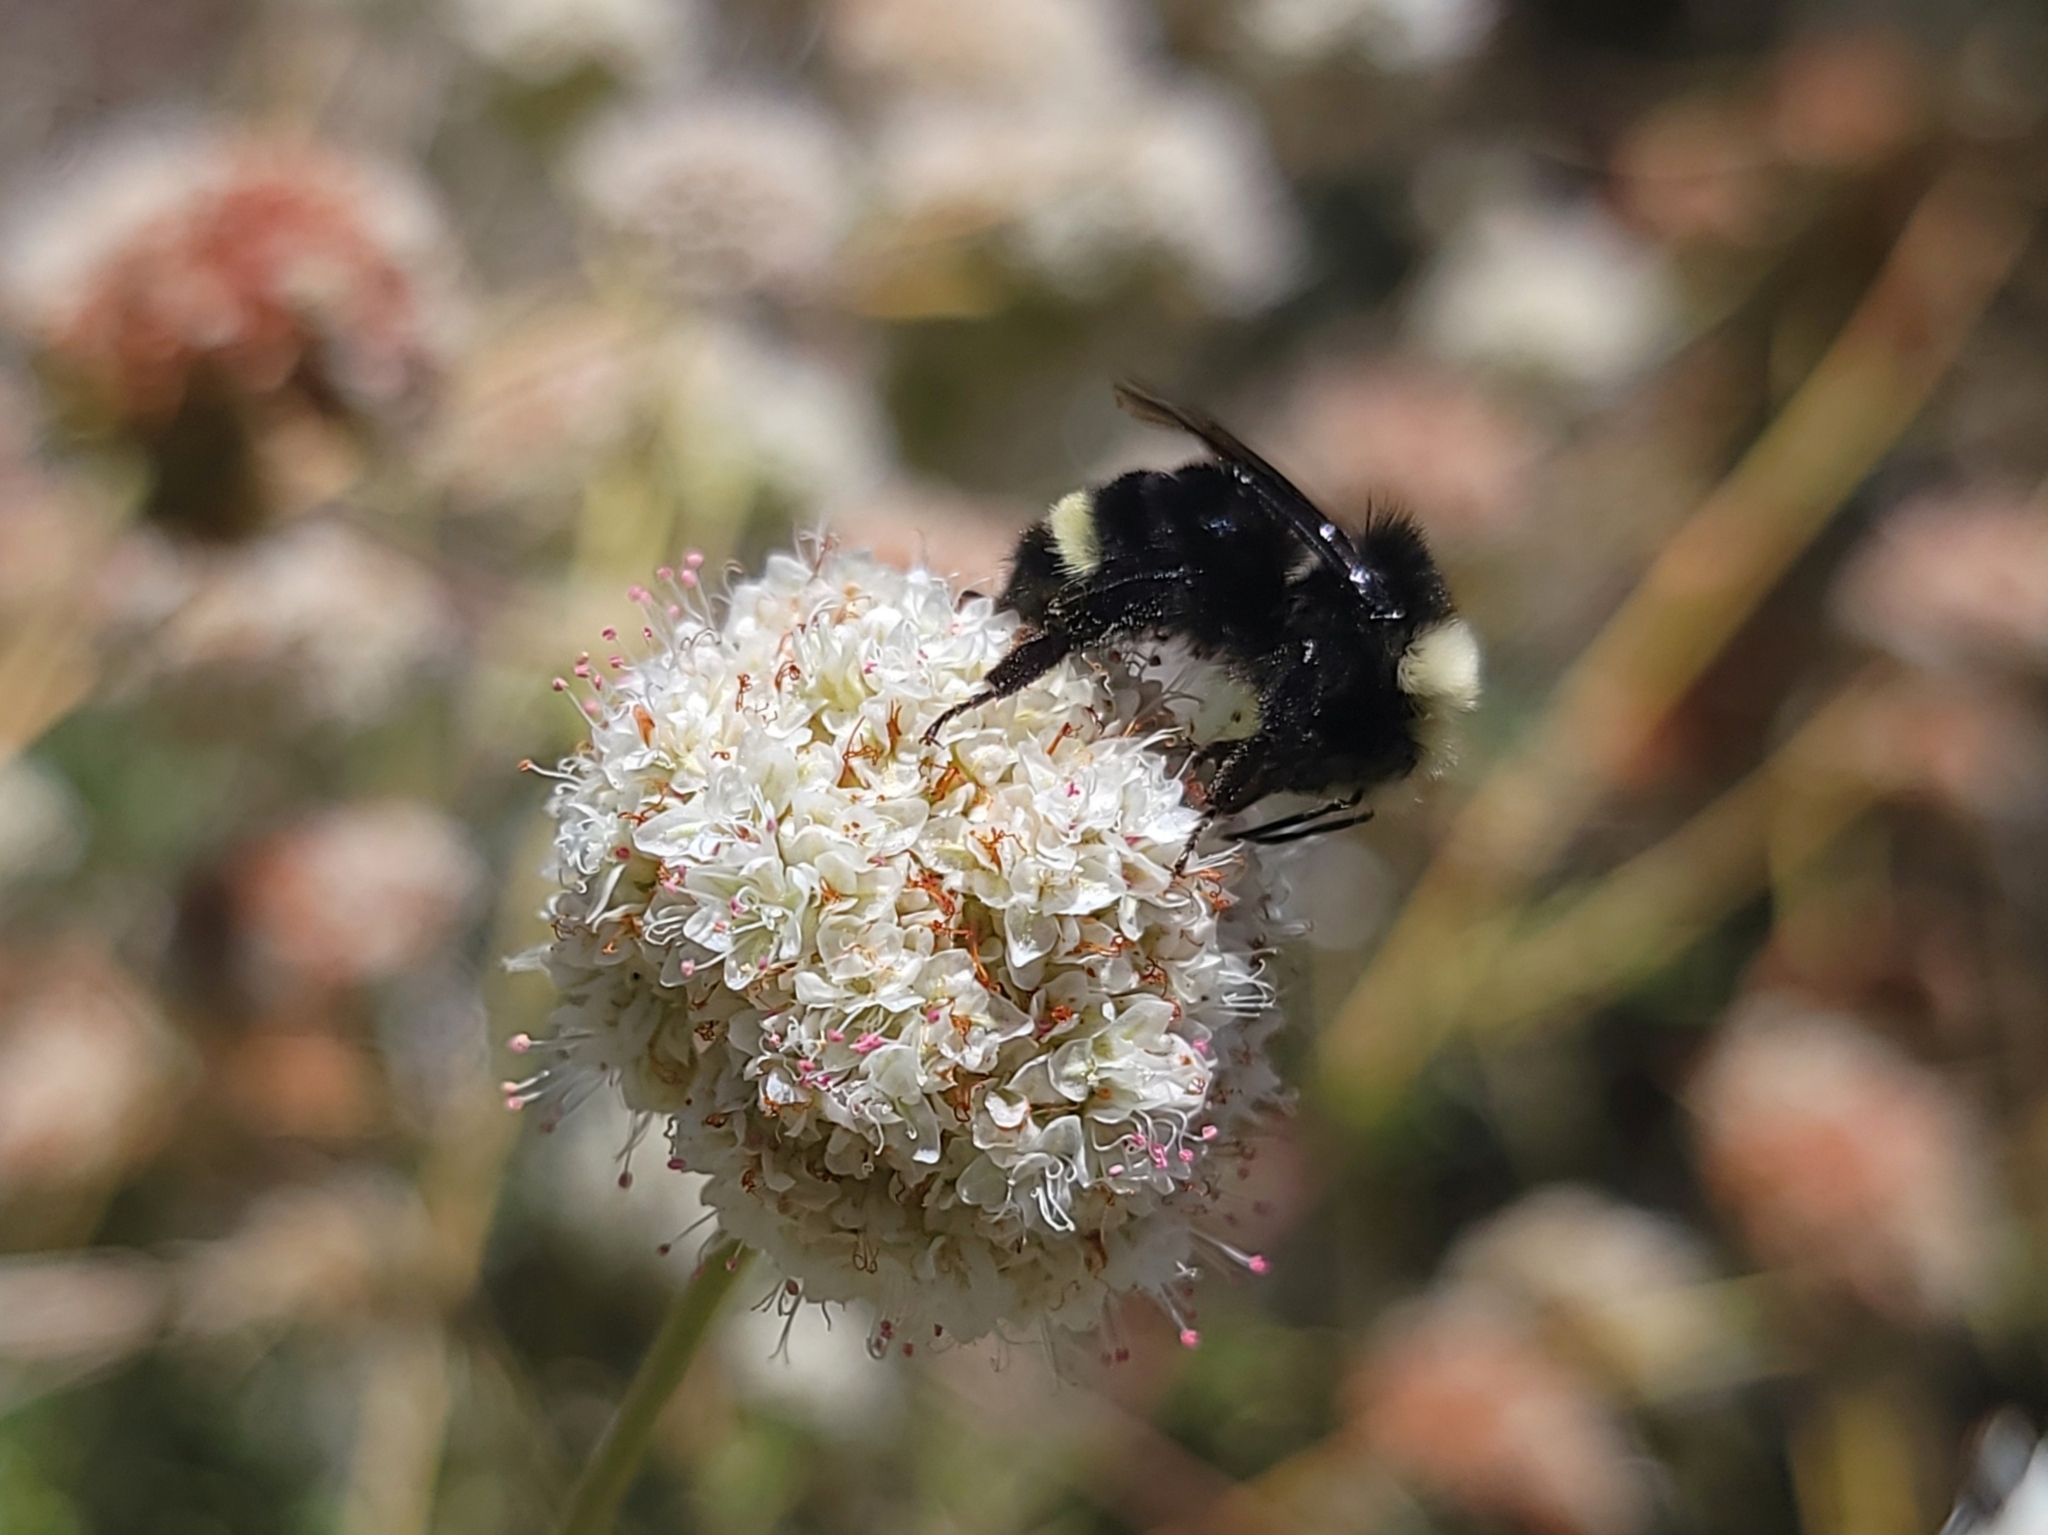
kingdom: Animalia
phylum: Arthropoda
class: Insecta
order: Hymenoptera
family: Apidae
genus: Bombus
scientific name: Bombus vosnesenskii
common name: Vosnesensky bumble bee
